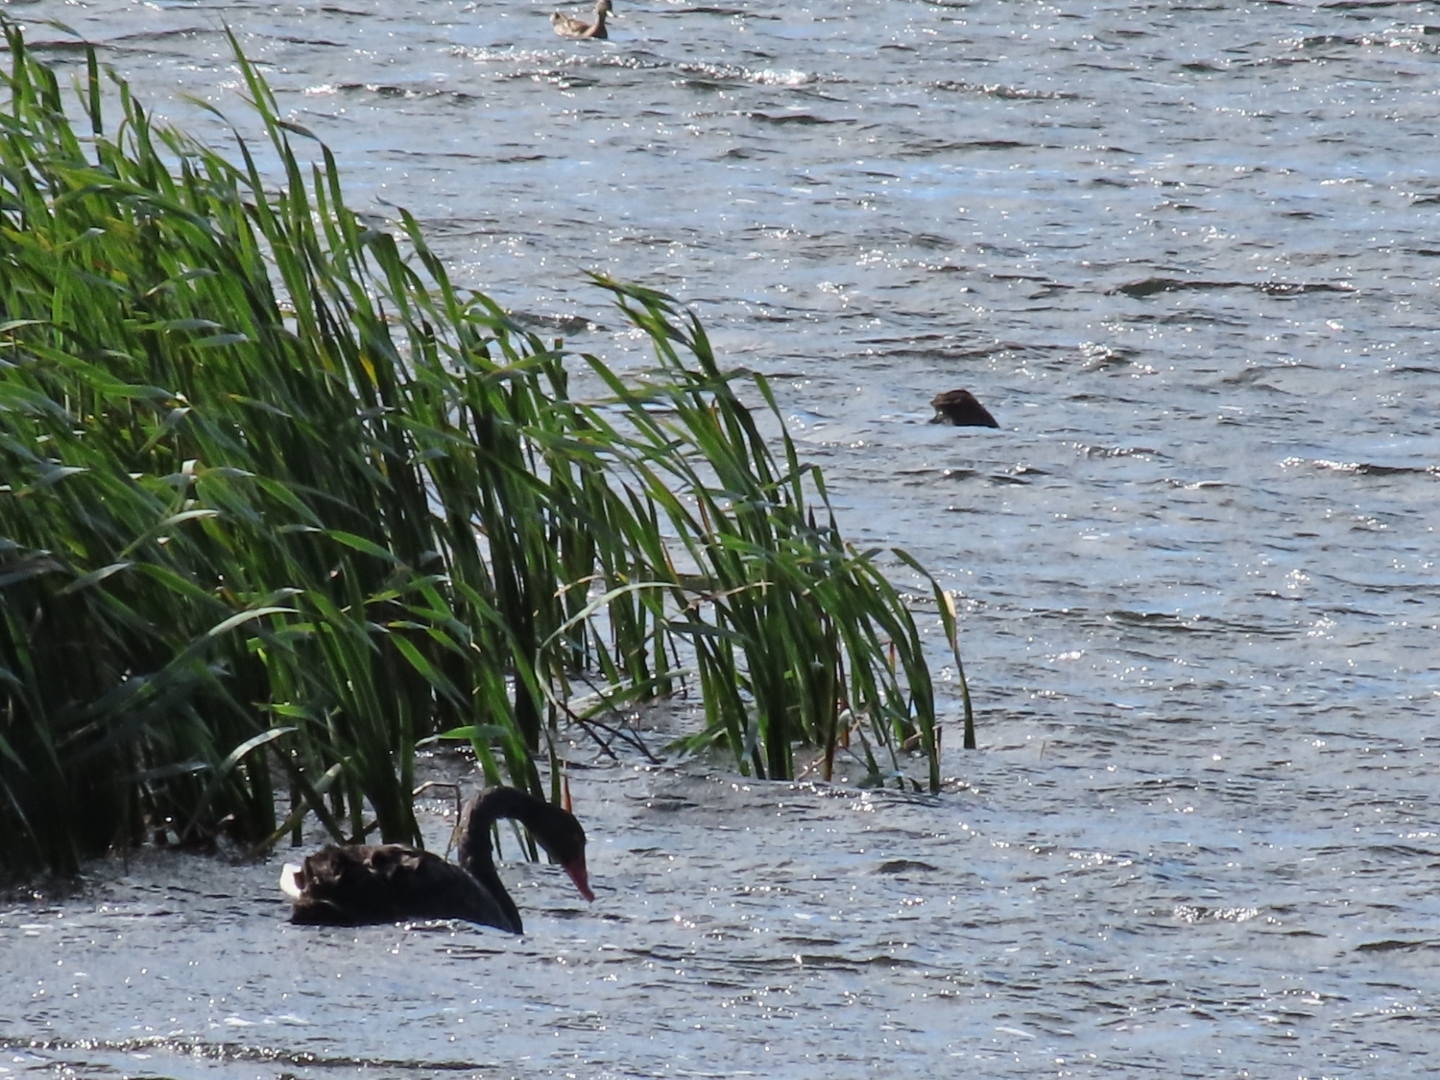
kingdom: Animalia
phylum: Chordata
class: Aves
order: Anseriformes
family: Anatidae
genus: Cygnus
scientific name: Cygnus atratus
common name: Black swan
